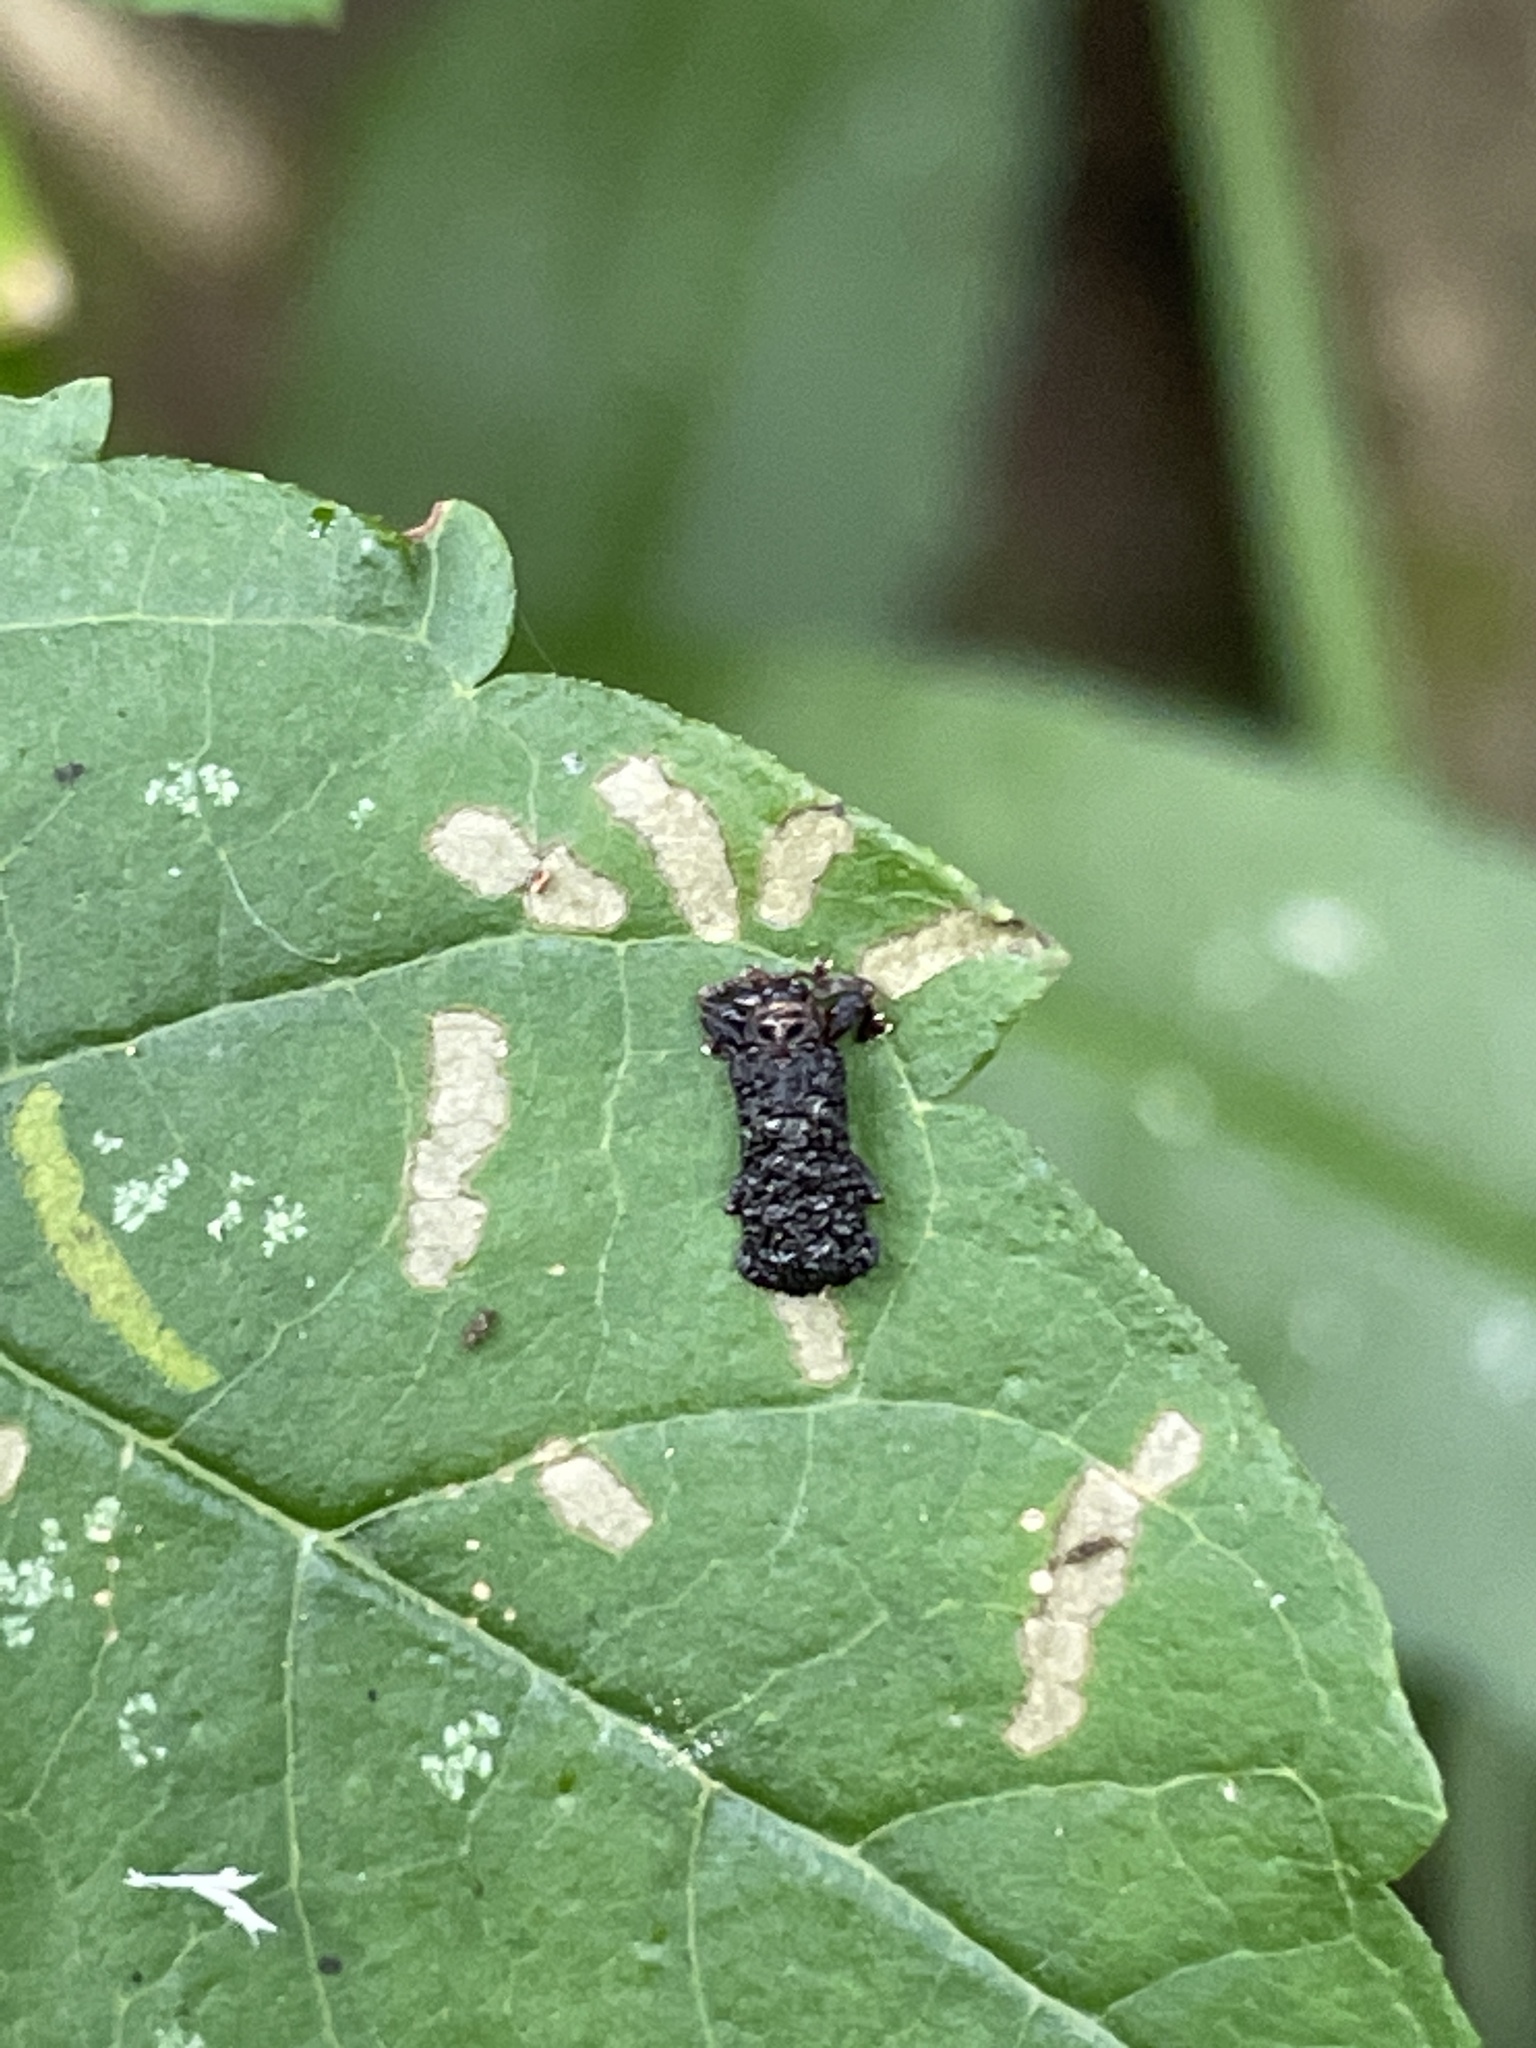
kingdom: Animalia
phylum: Arthropoda
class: Insecta
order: Coleoptera
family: Chrysomelidae
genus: Octotoma
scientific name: Octotoma plicatula
